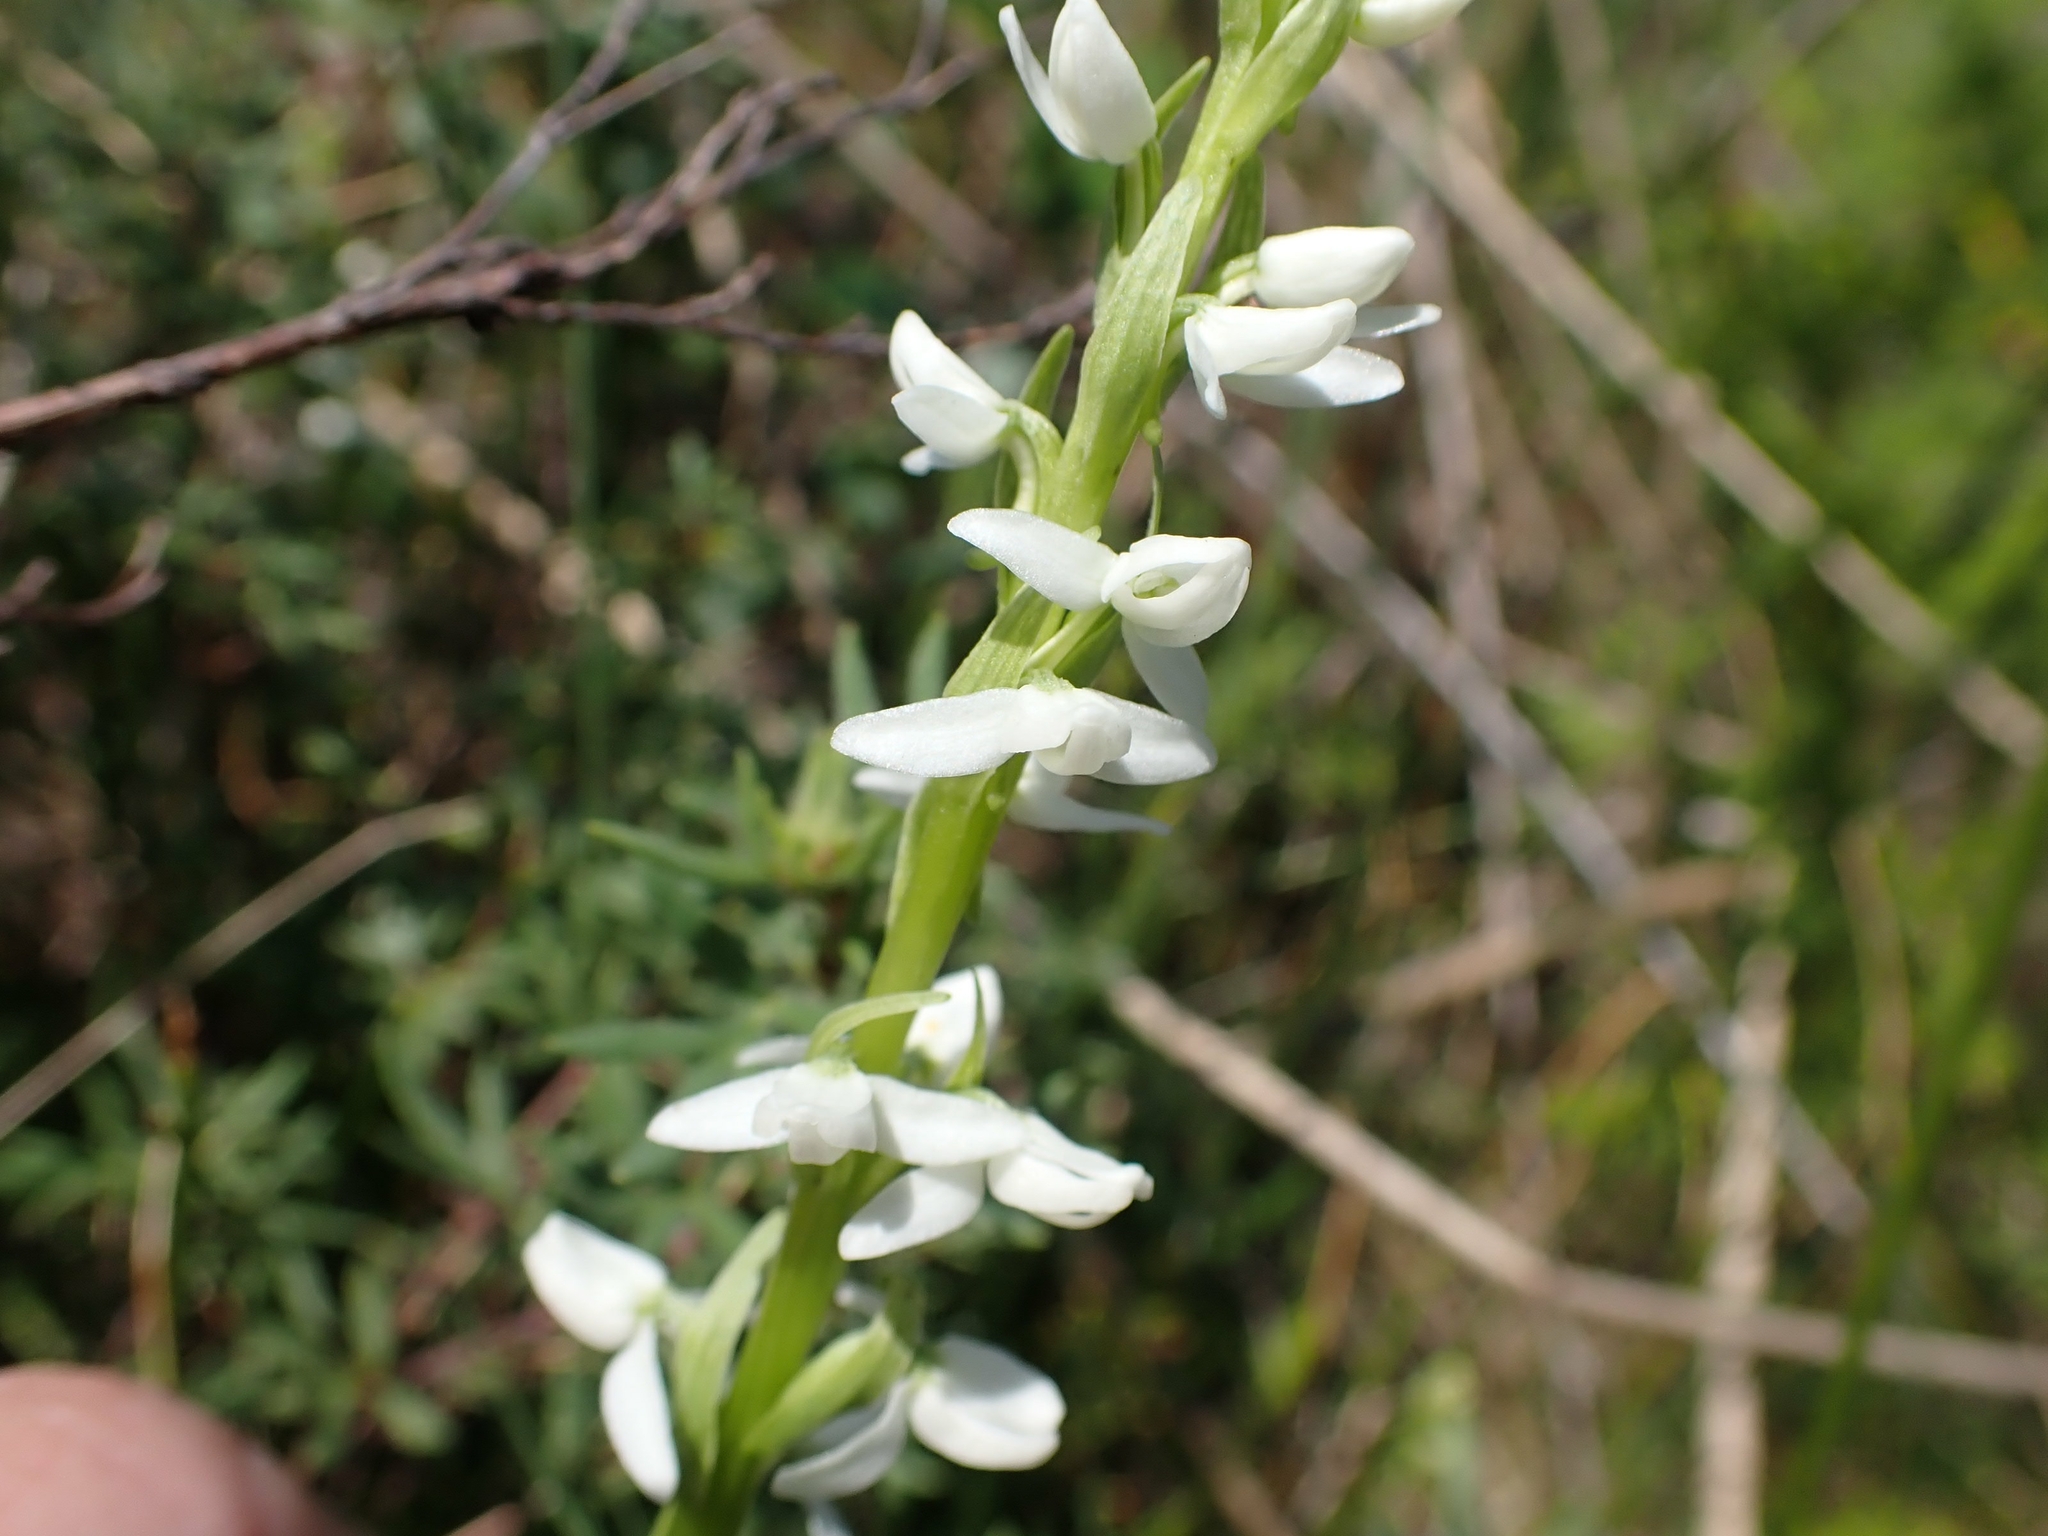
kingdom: Plantae
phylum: Tracheophyta
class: Liliopsida
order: Asparagales
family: Orchidaceae
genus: Platanthera
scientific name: Platanthera dilatata
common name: Bog candles
